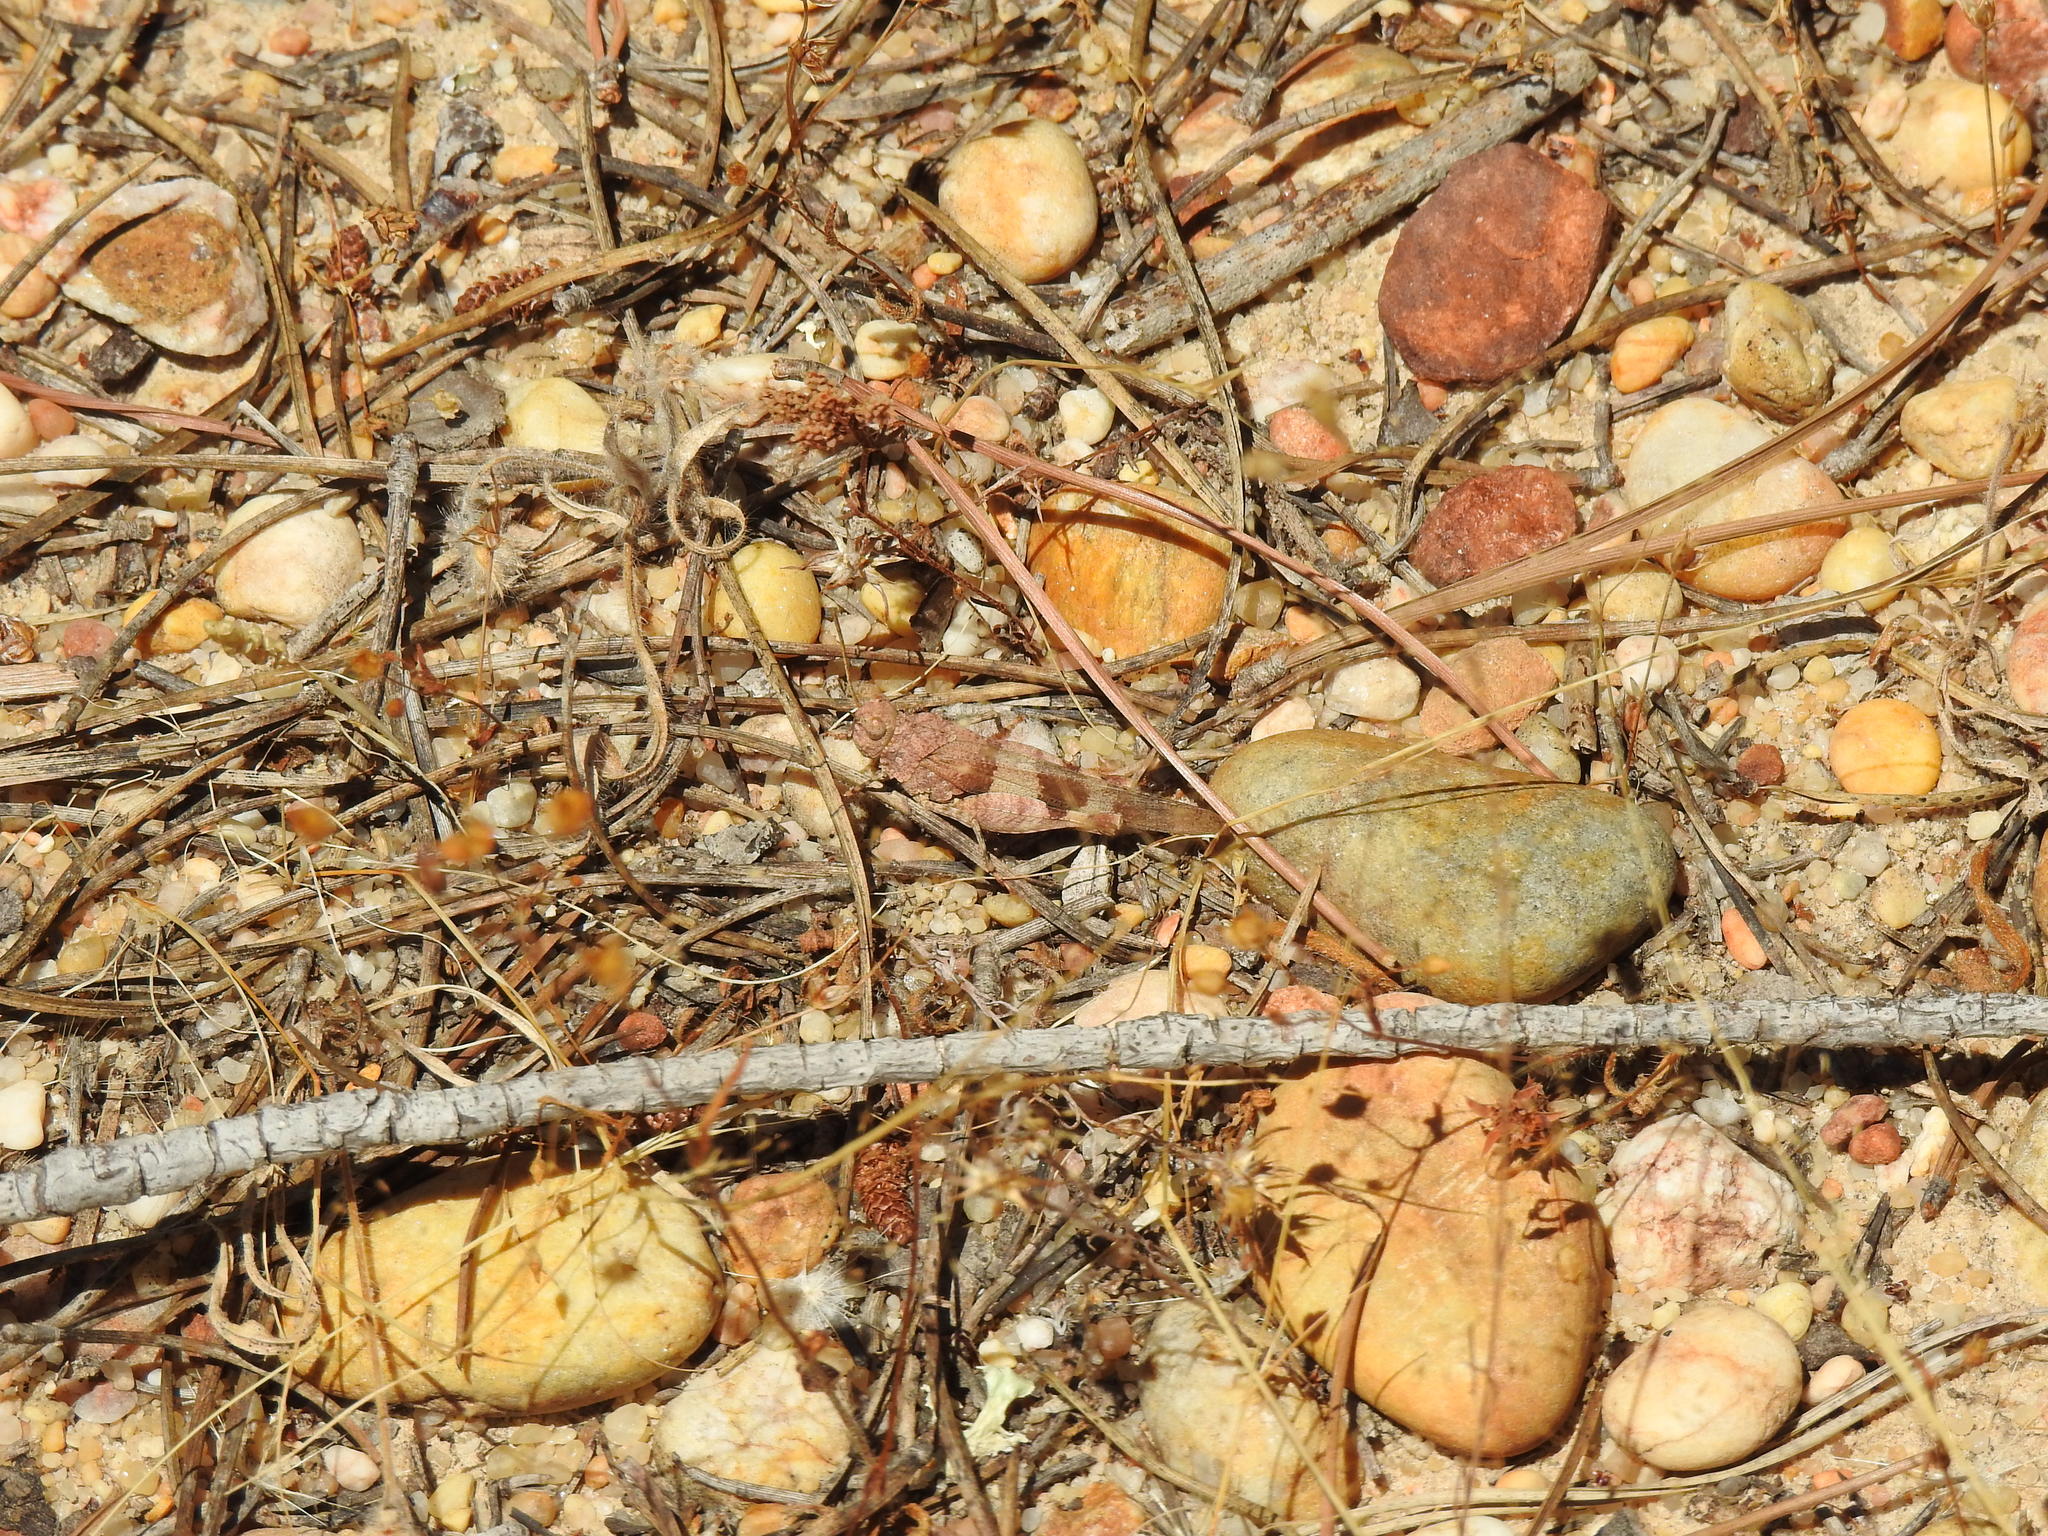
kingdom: Animalia
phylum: Arthropoda
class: Insecta
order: Orthoptera
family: Acrididae
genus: Oedipoda
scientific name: Oedipoda caerulescens
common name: Blue-winged grasshopper
